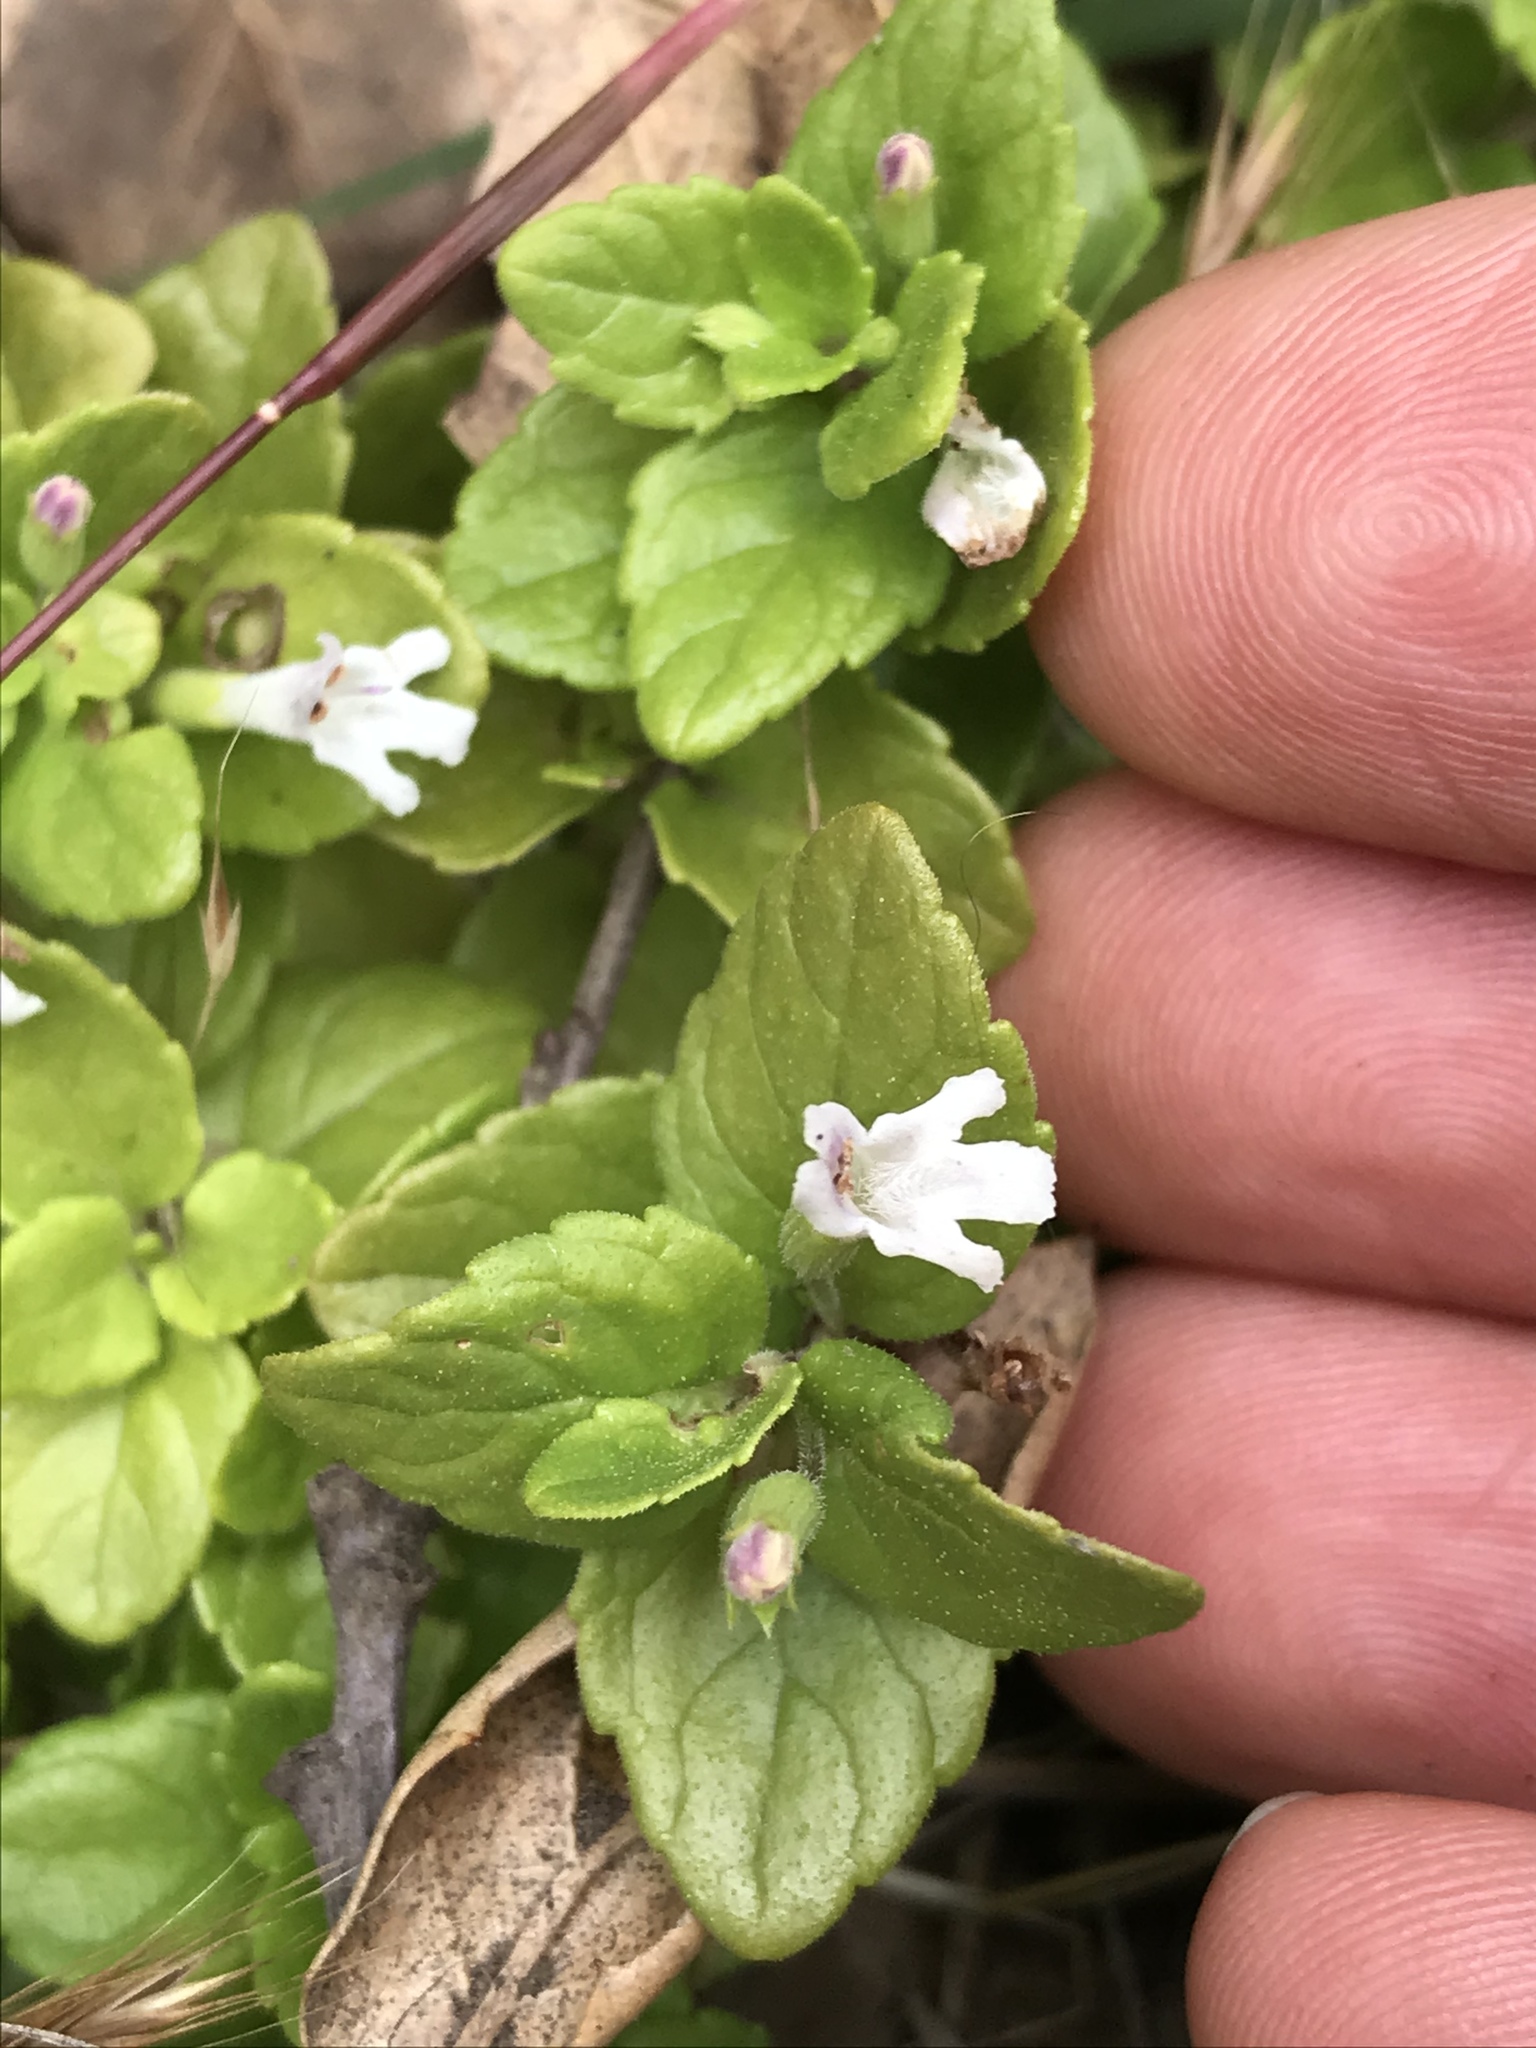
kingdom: Plantae
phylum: Tracheophyta
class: Magnoliopsida
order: Lamiales
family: Lamiaceae
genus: Micromeria
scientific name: Micromeria douglasii
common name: Yerba buena
